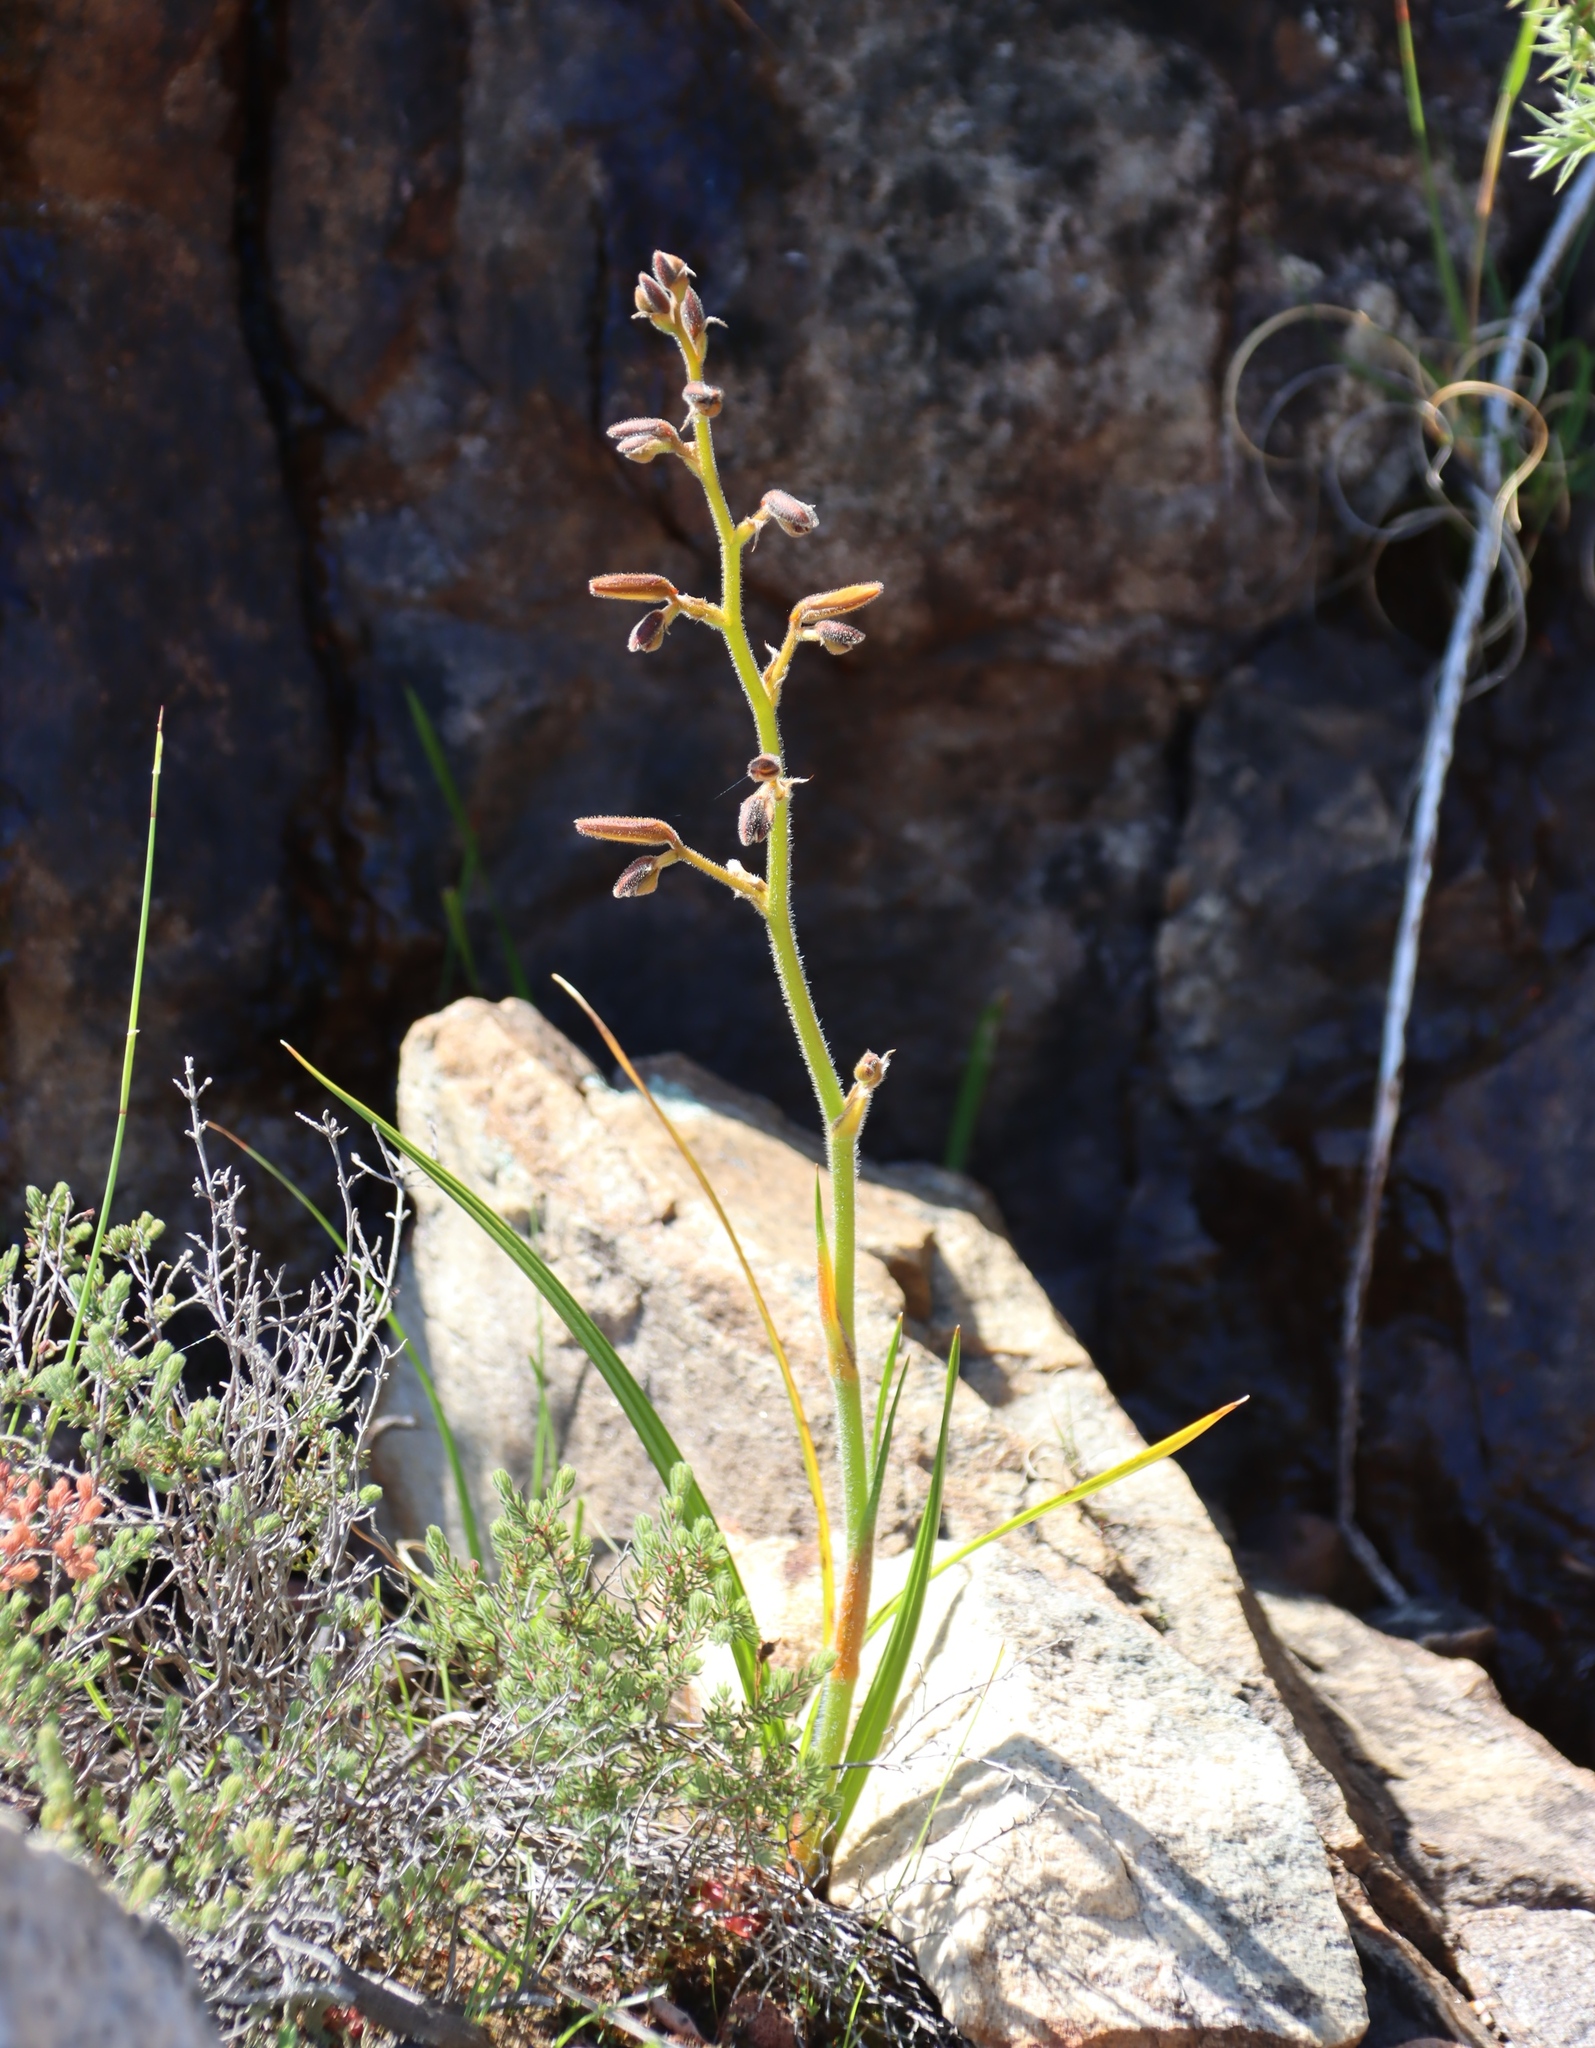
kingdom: Plantae
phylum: Tracheophyta
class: Liliopsida
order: Commelinales
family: Haemodoraceae
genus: Wachendorfia
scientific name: Wachendorfia paniculata
